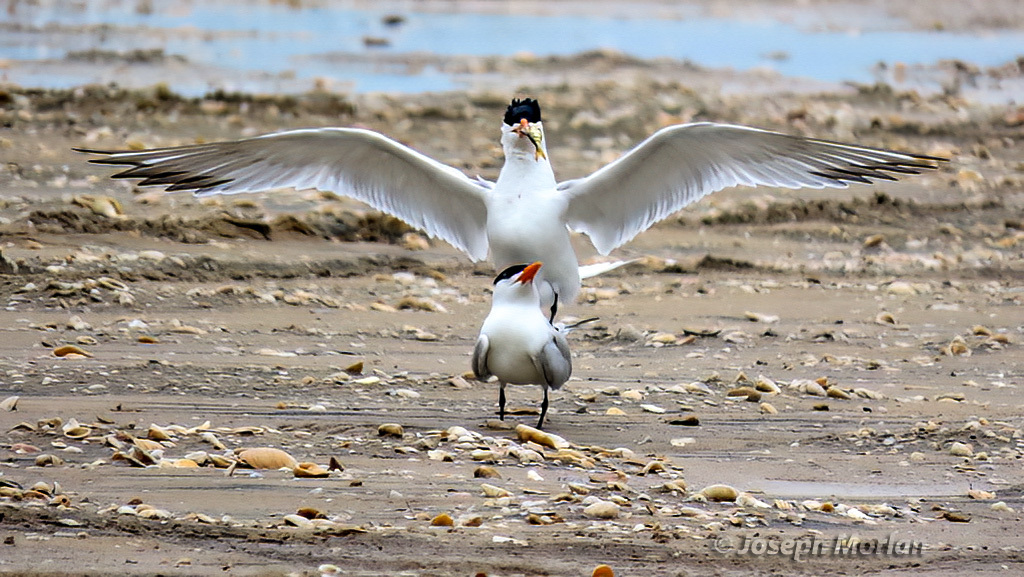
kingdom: Animalia
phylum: Chordata
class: Aves
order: Charadriiformes
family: Laridae
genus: Thalasseus
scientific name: Thalasseus maximus
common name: Royal tern
